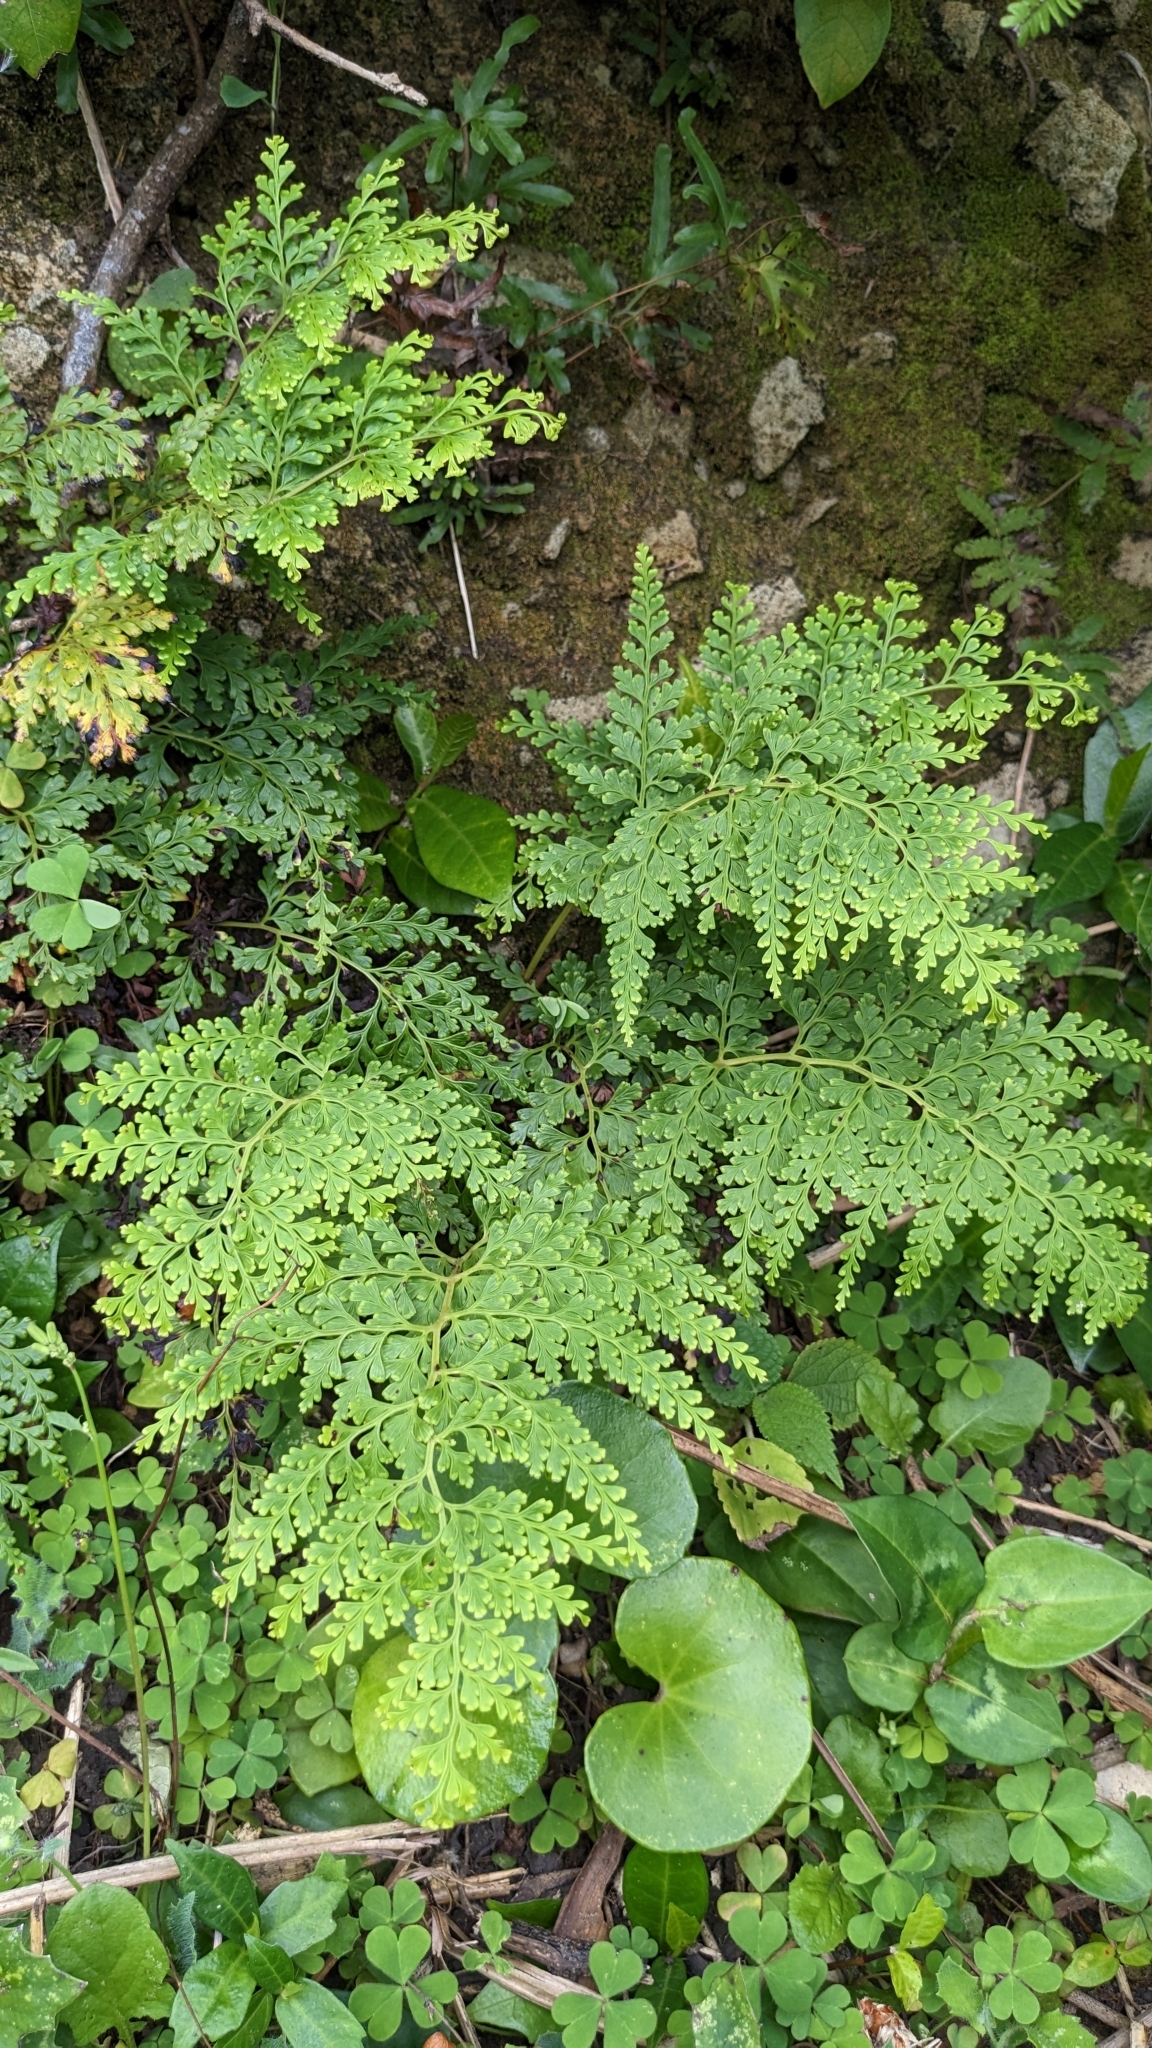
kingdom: Plantae
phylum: Tracheophyta
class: Polypodiopsida
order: Polypodiales
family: Lindsaeaceae
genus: Odontosoria
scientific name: Odontosoria biflora
